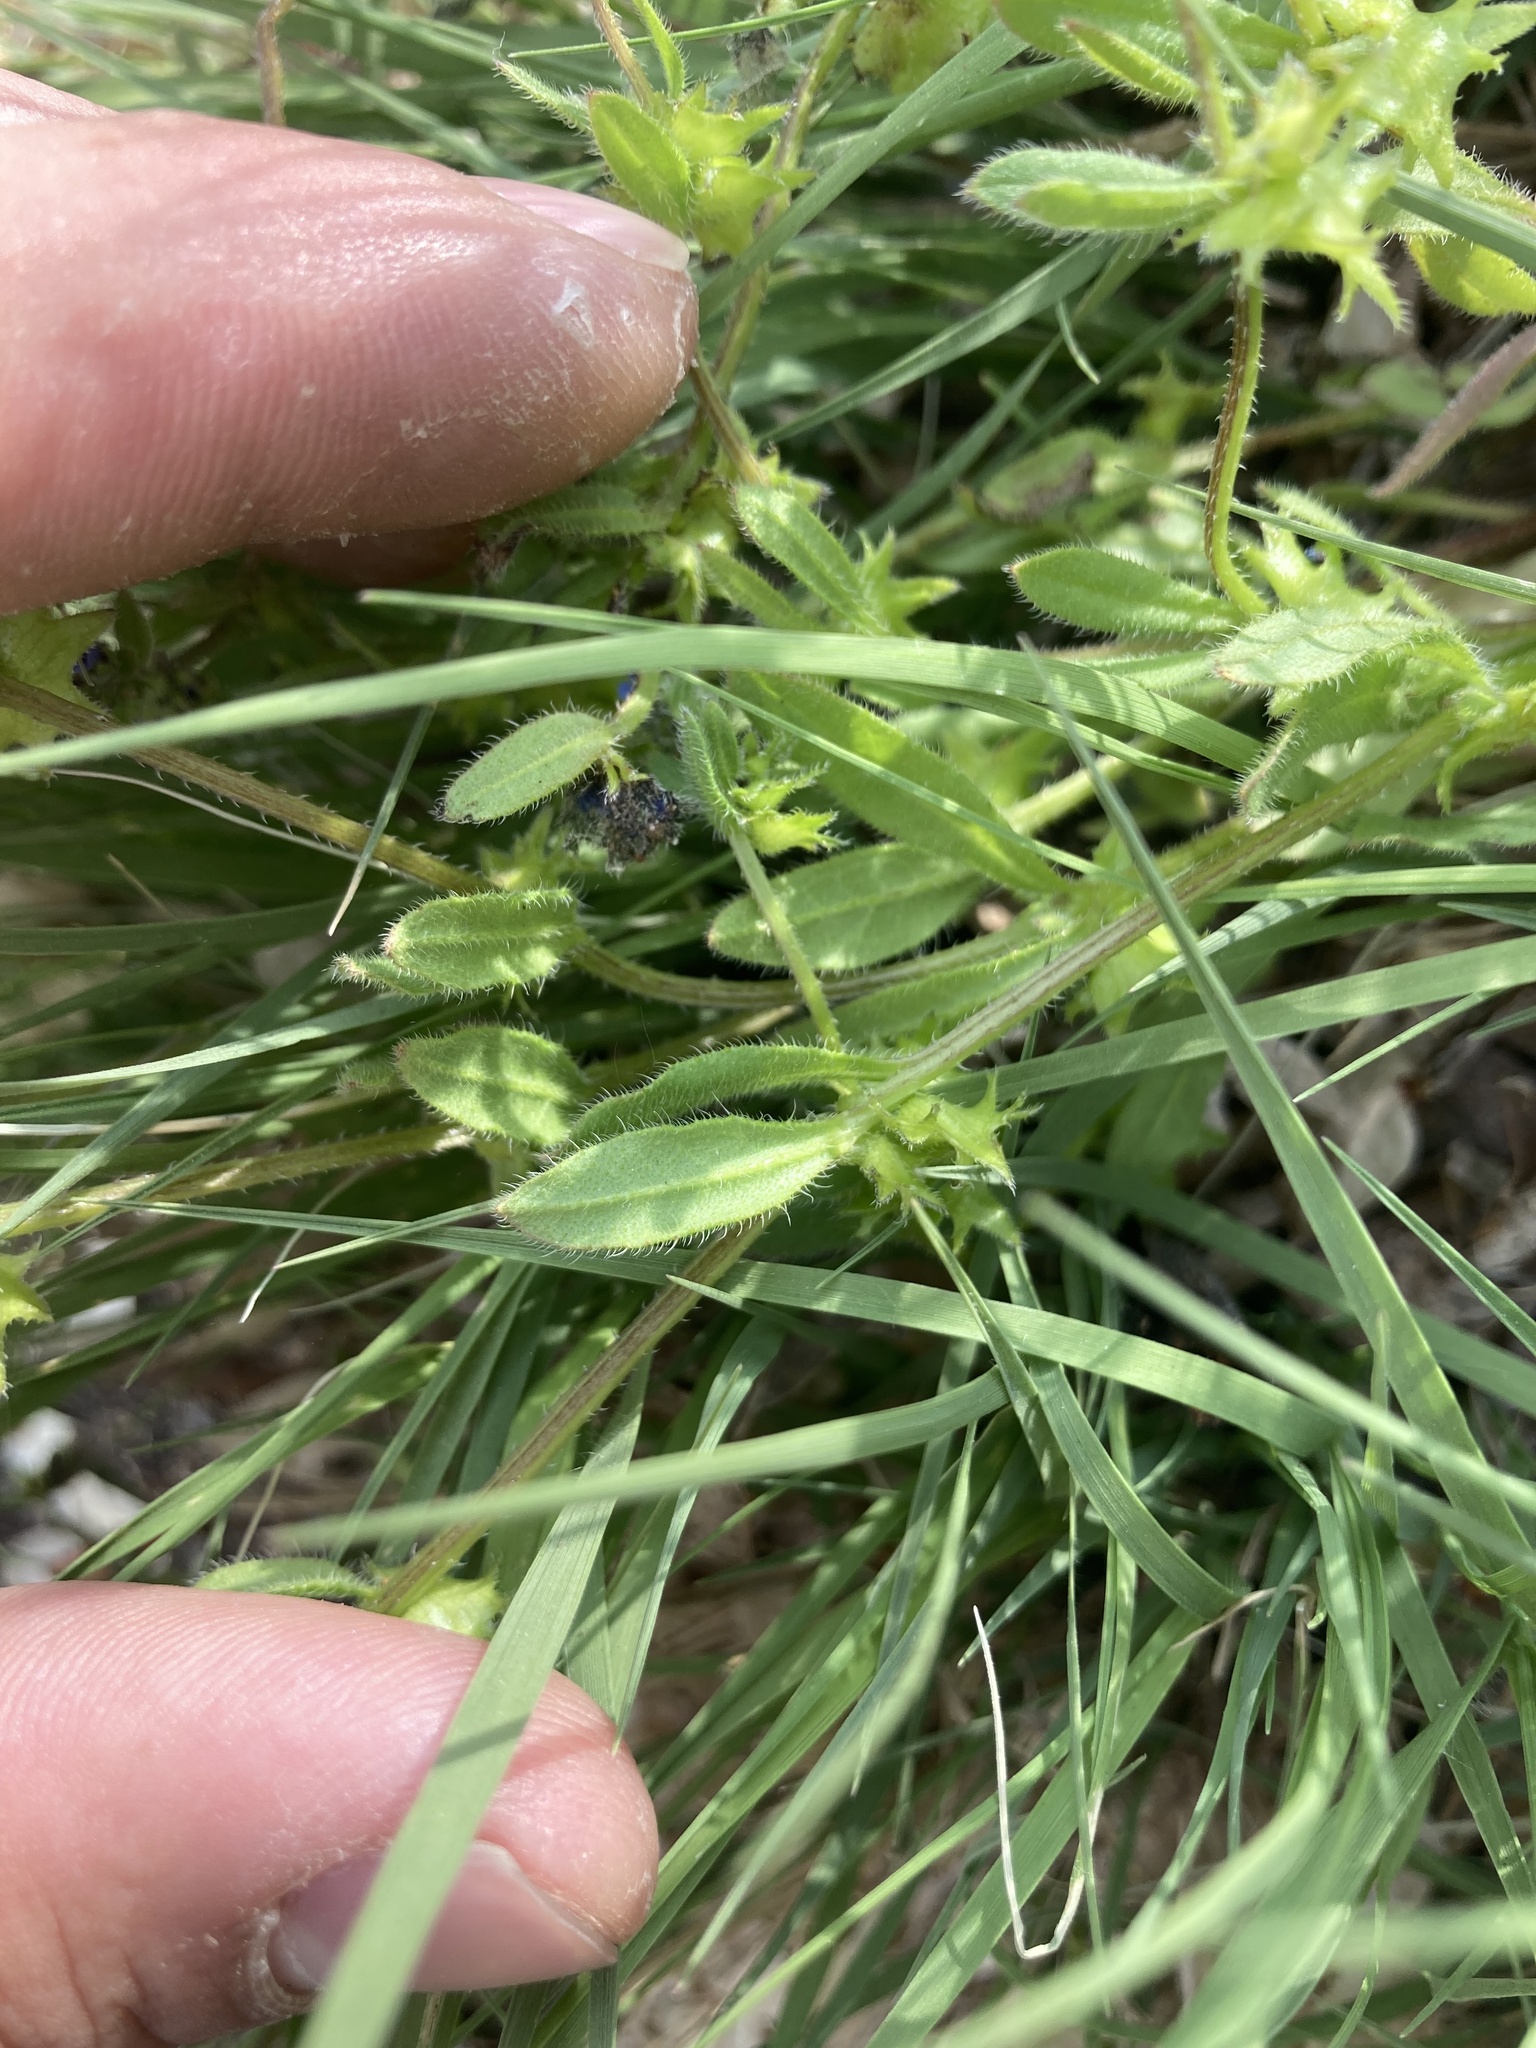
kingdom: Plantae
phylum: Tracheophyta
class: Magnoliopsida
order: Boraginales
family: Boraginaceae
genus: Asperugo
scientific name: Asperugo procumbens
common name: Madwort
